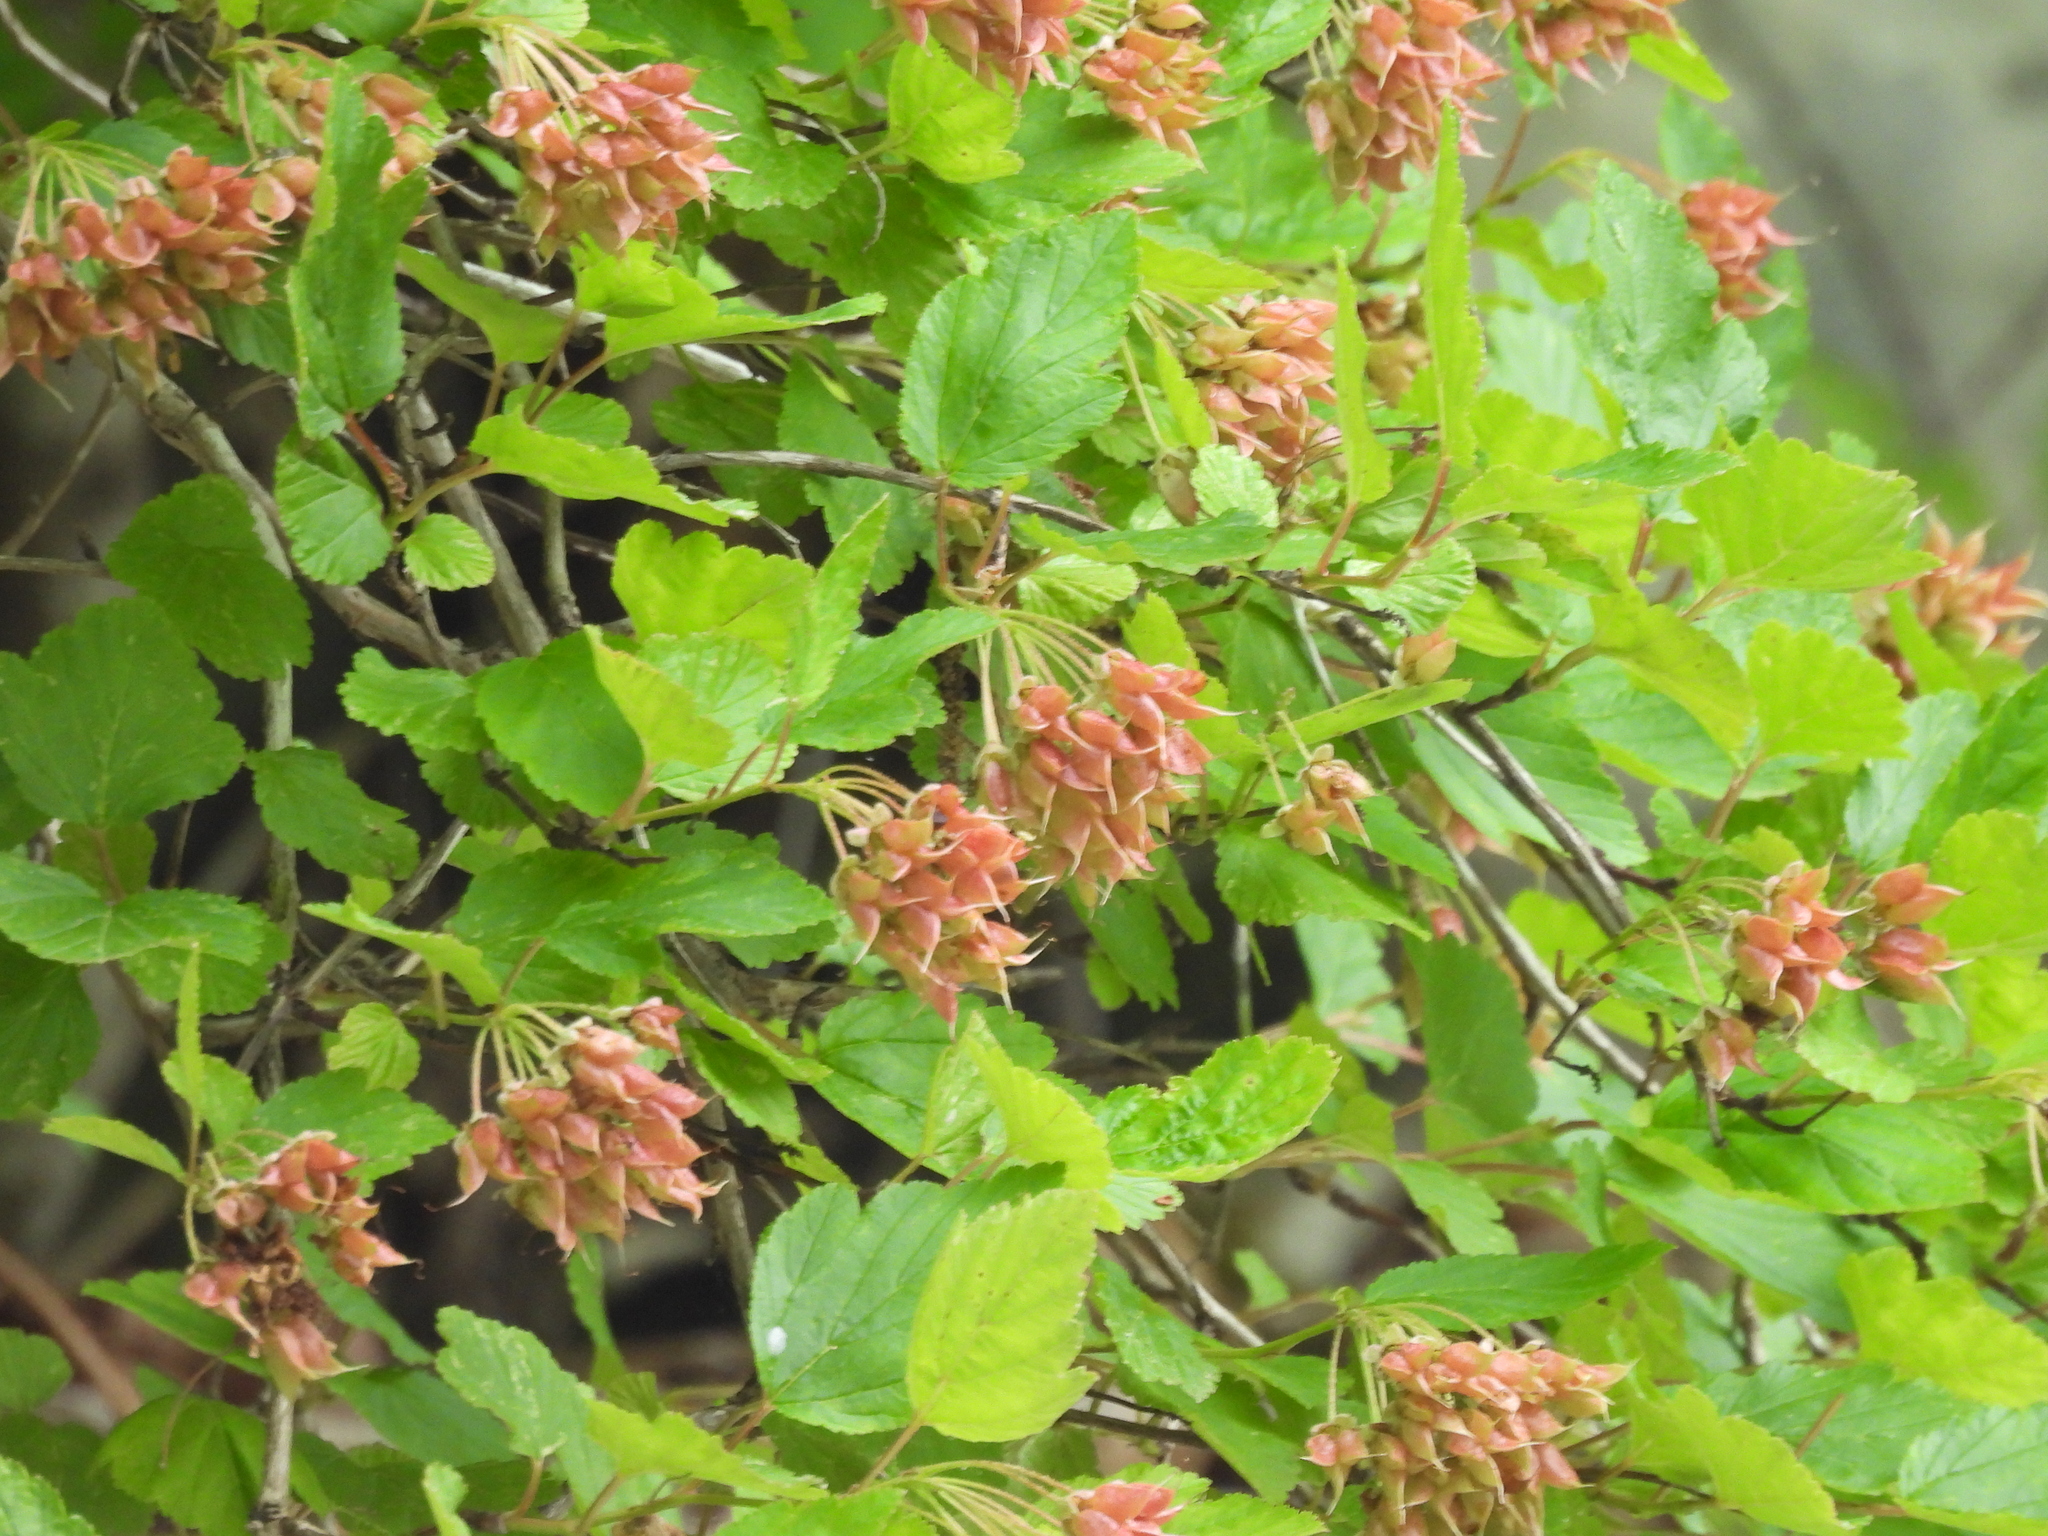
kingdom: Plantae
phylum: Tracheophyta
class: Magnoliopsida
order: Rosales
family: Rosaceae
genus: Physocarpus
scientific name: Physocarpus opulifolius
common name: Ninebark
